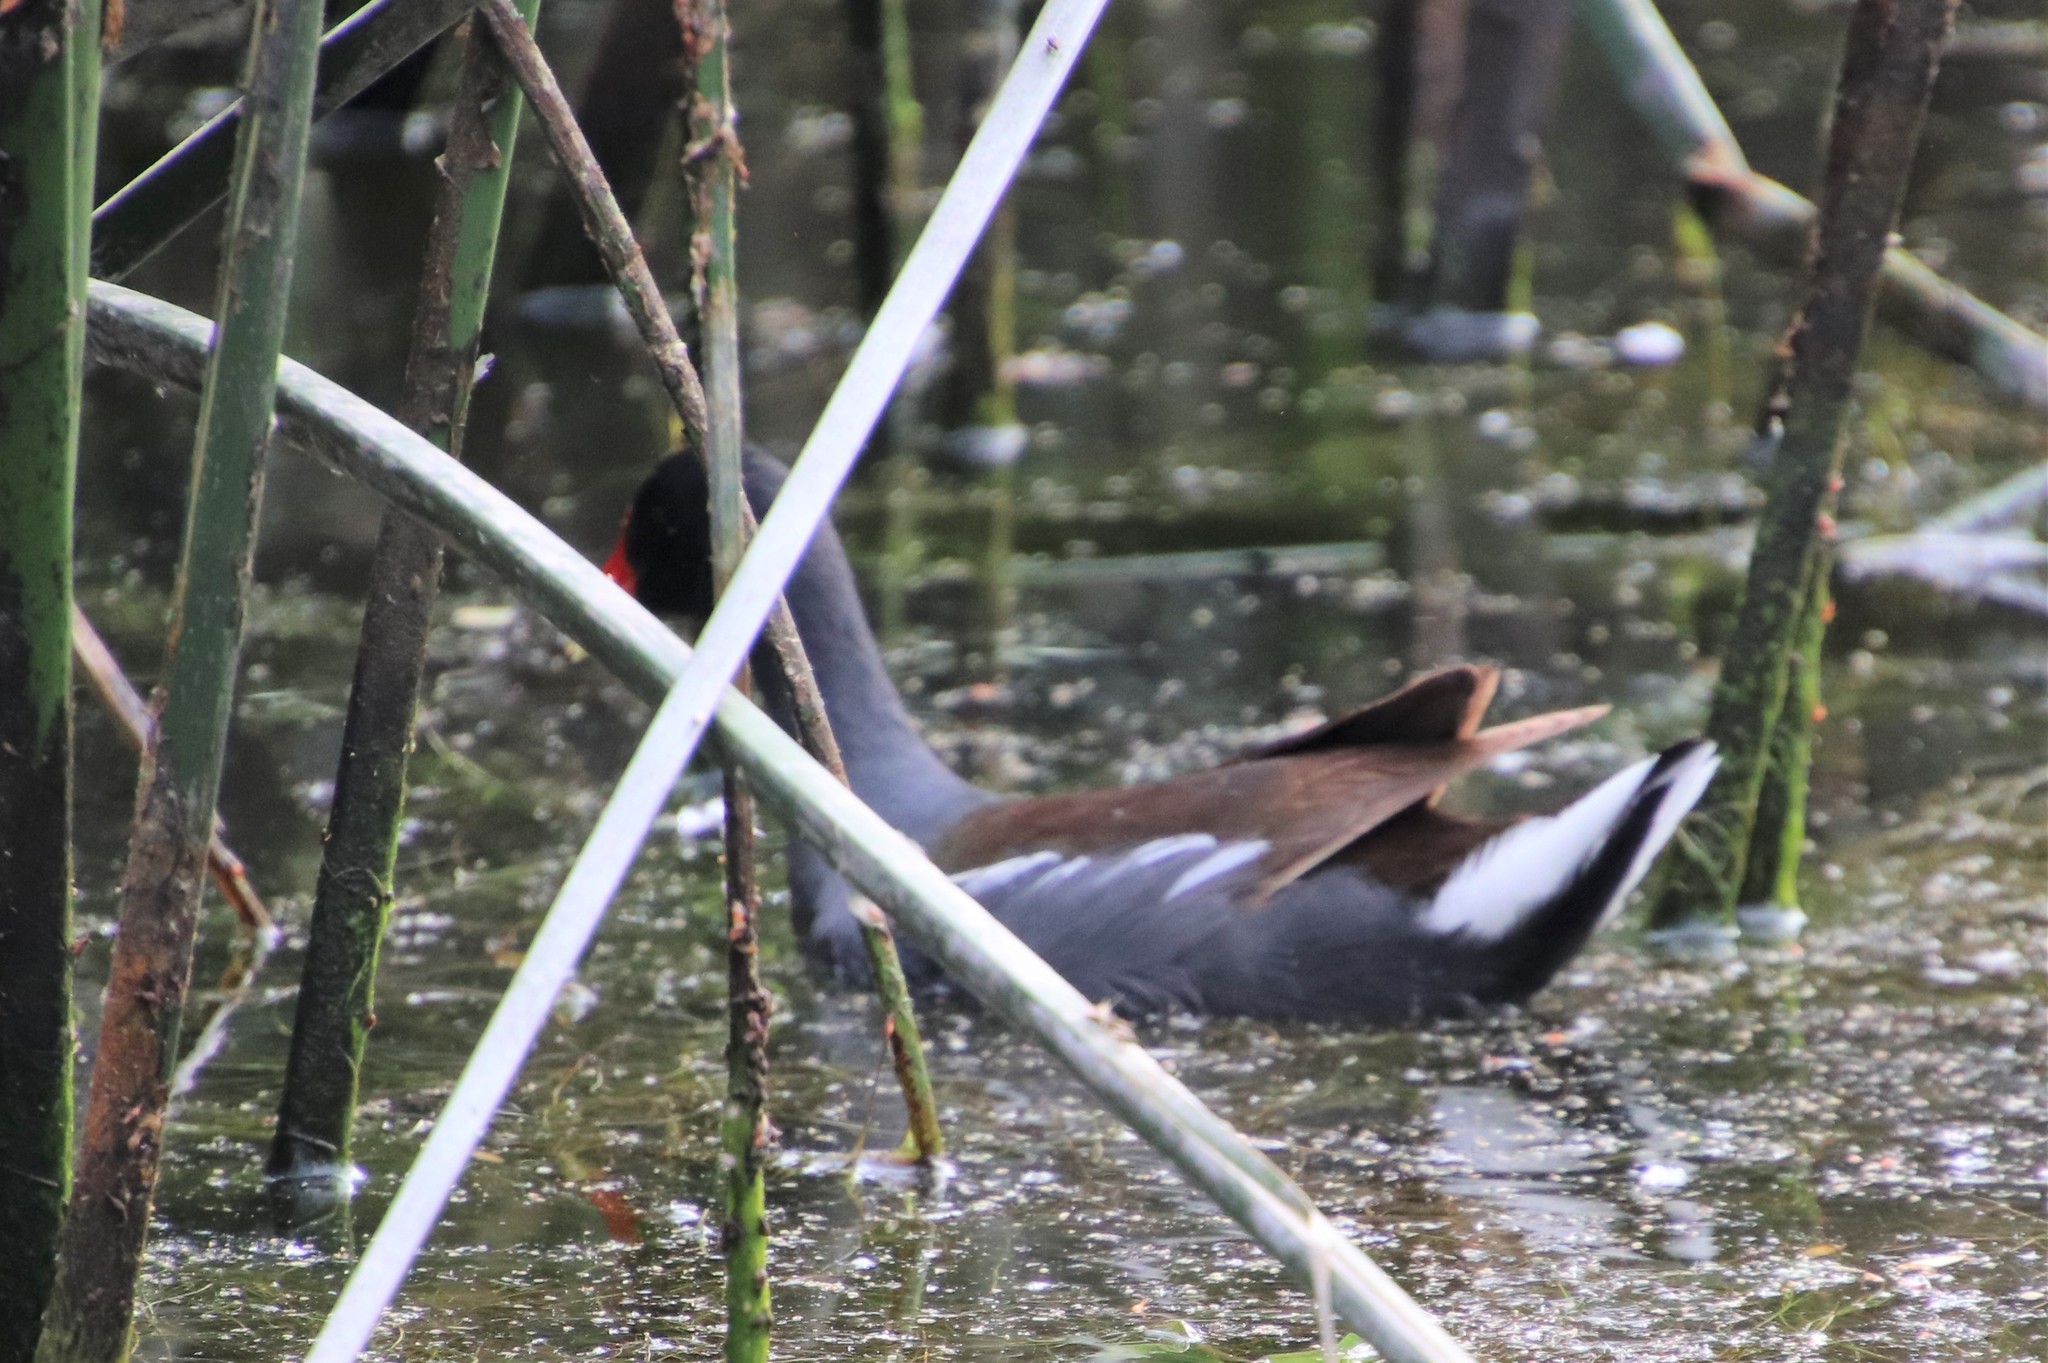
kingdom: Animalia
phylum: Chordata
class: Aves
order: Gruiformes
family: Rallidae
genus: Gallinula
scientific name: Gallinula chloropus
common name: Common moorhen
